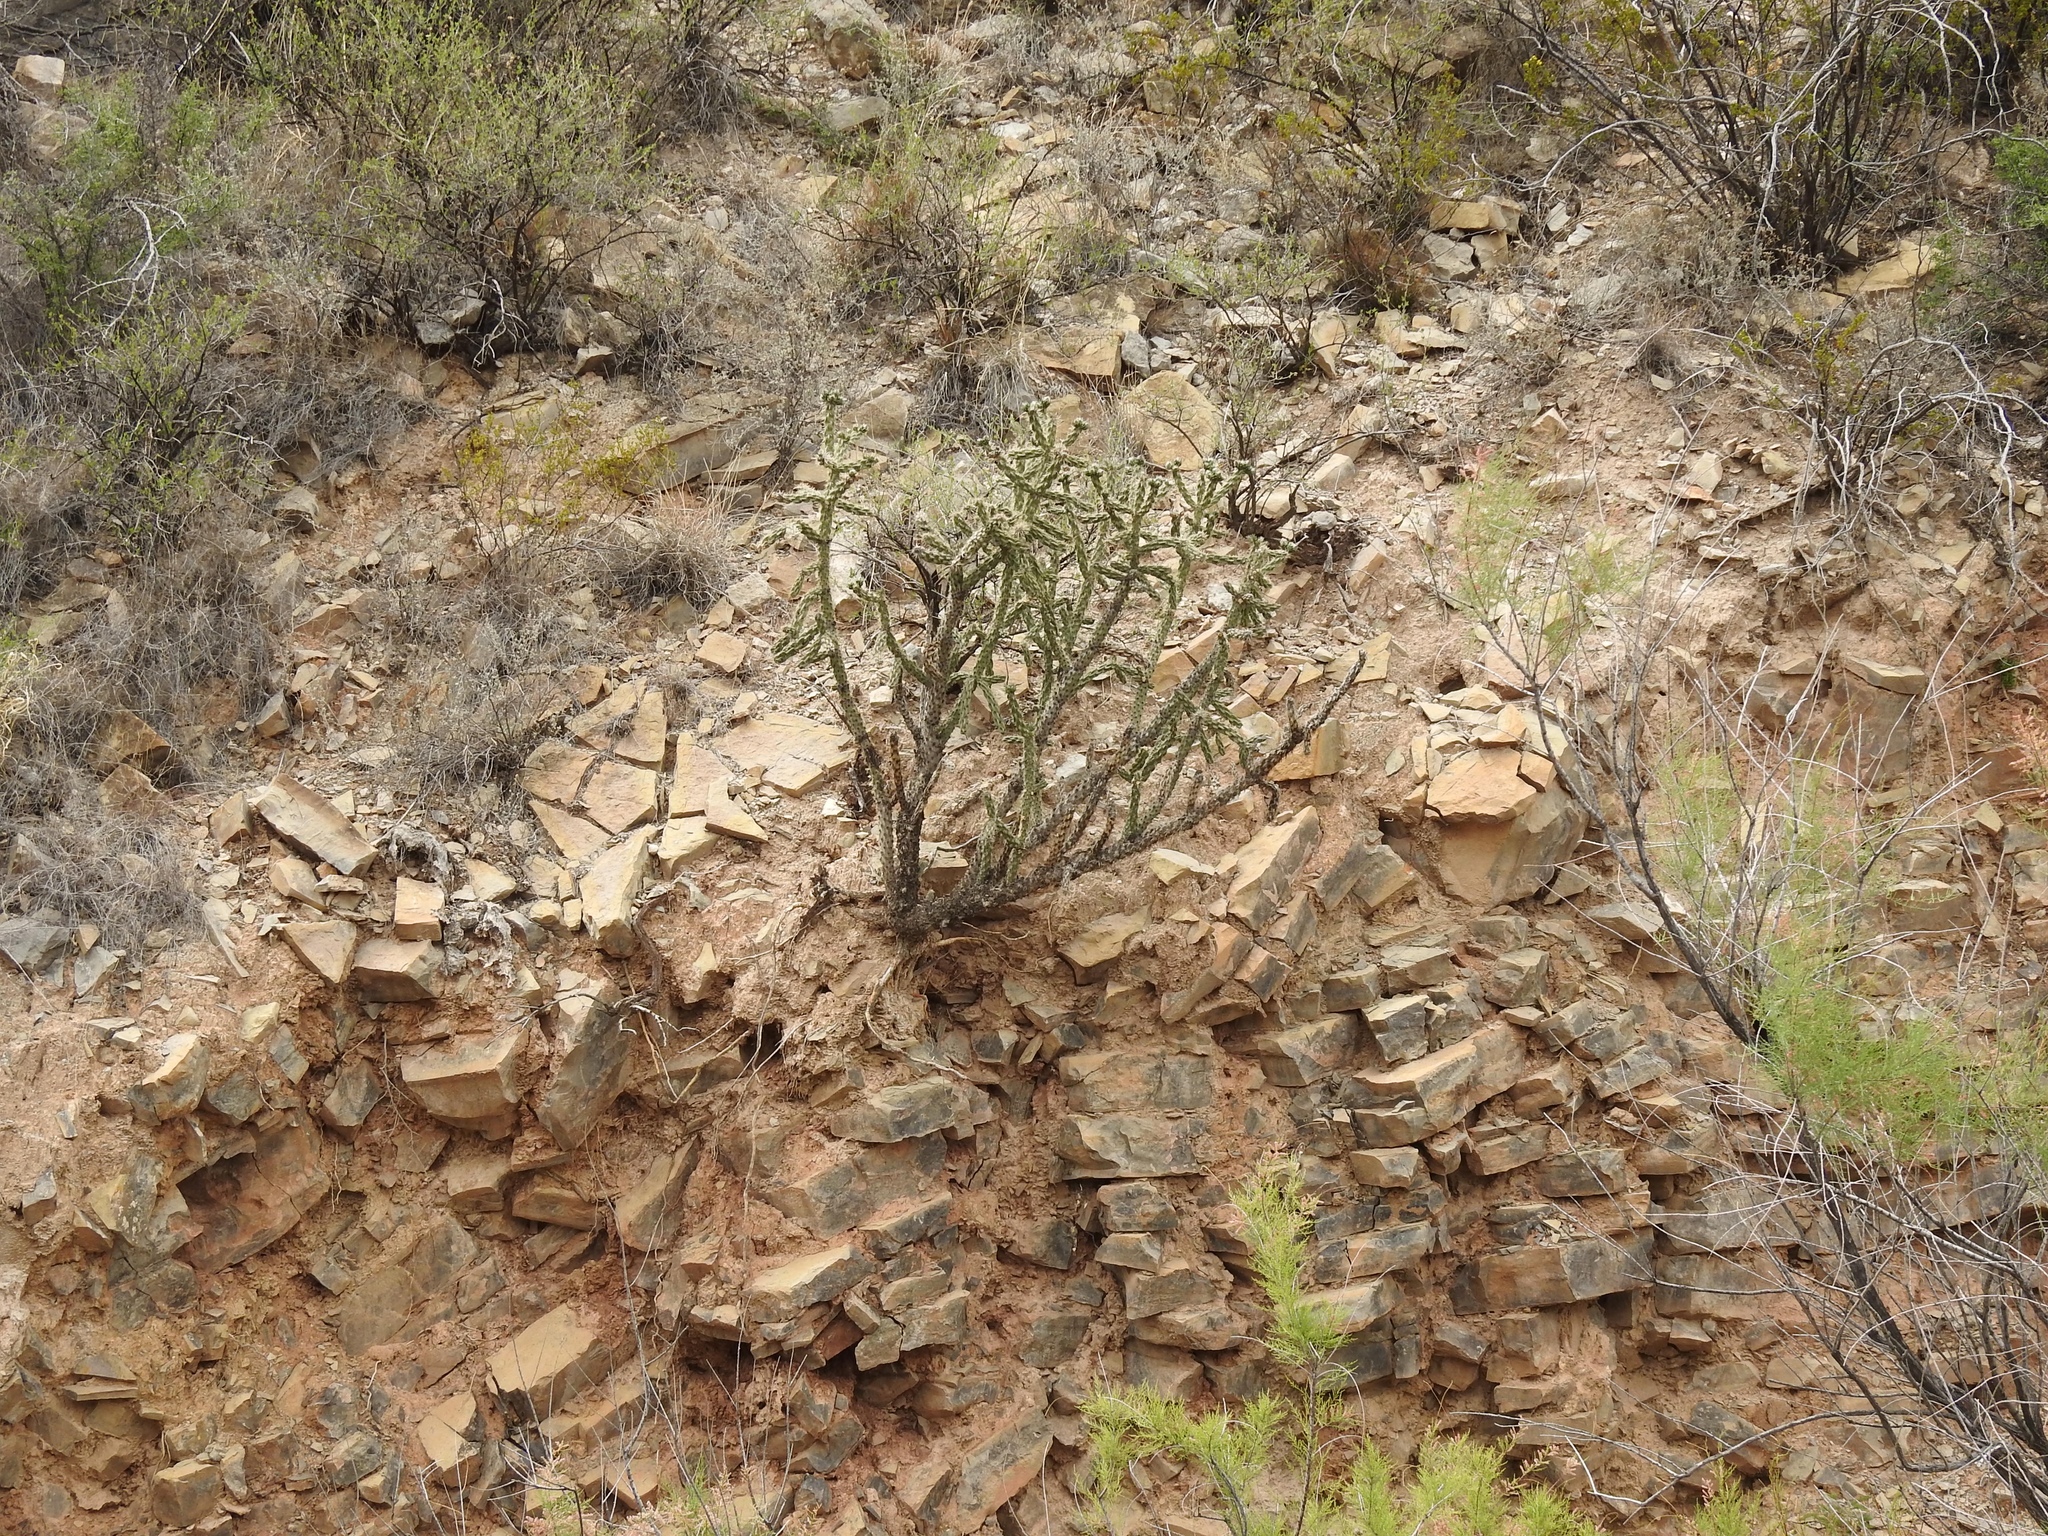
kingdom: Plantae
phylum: Tracheophyta
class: Magnoliopsida
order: Caryophyllales
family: Cactaceae
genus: Cylindropuntia
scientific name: Cylindropuntia imbricata
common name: Candelabrum cactus
